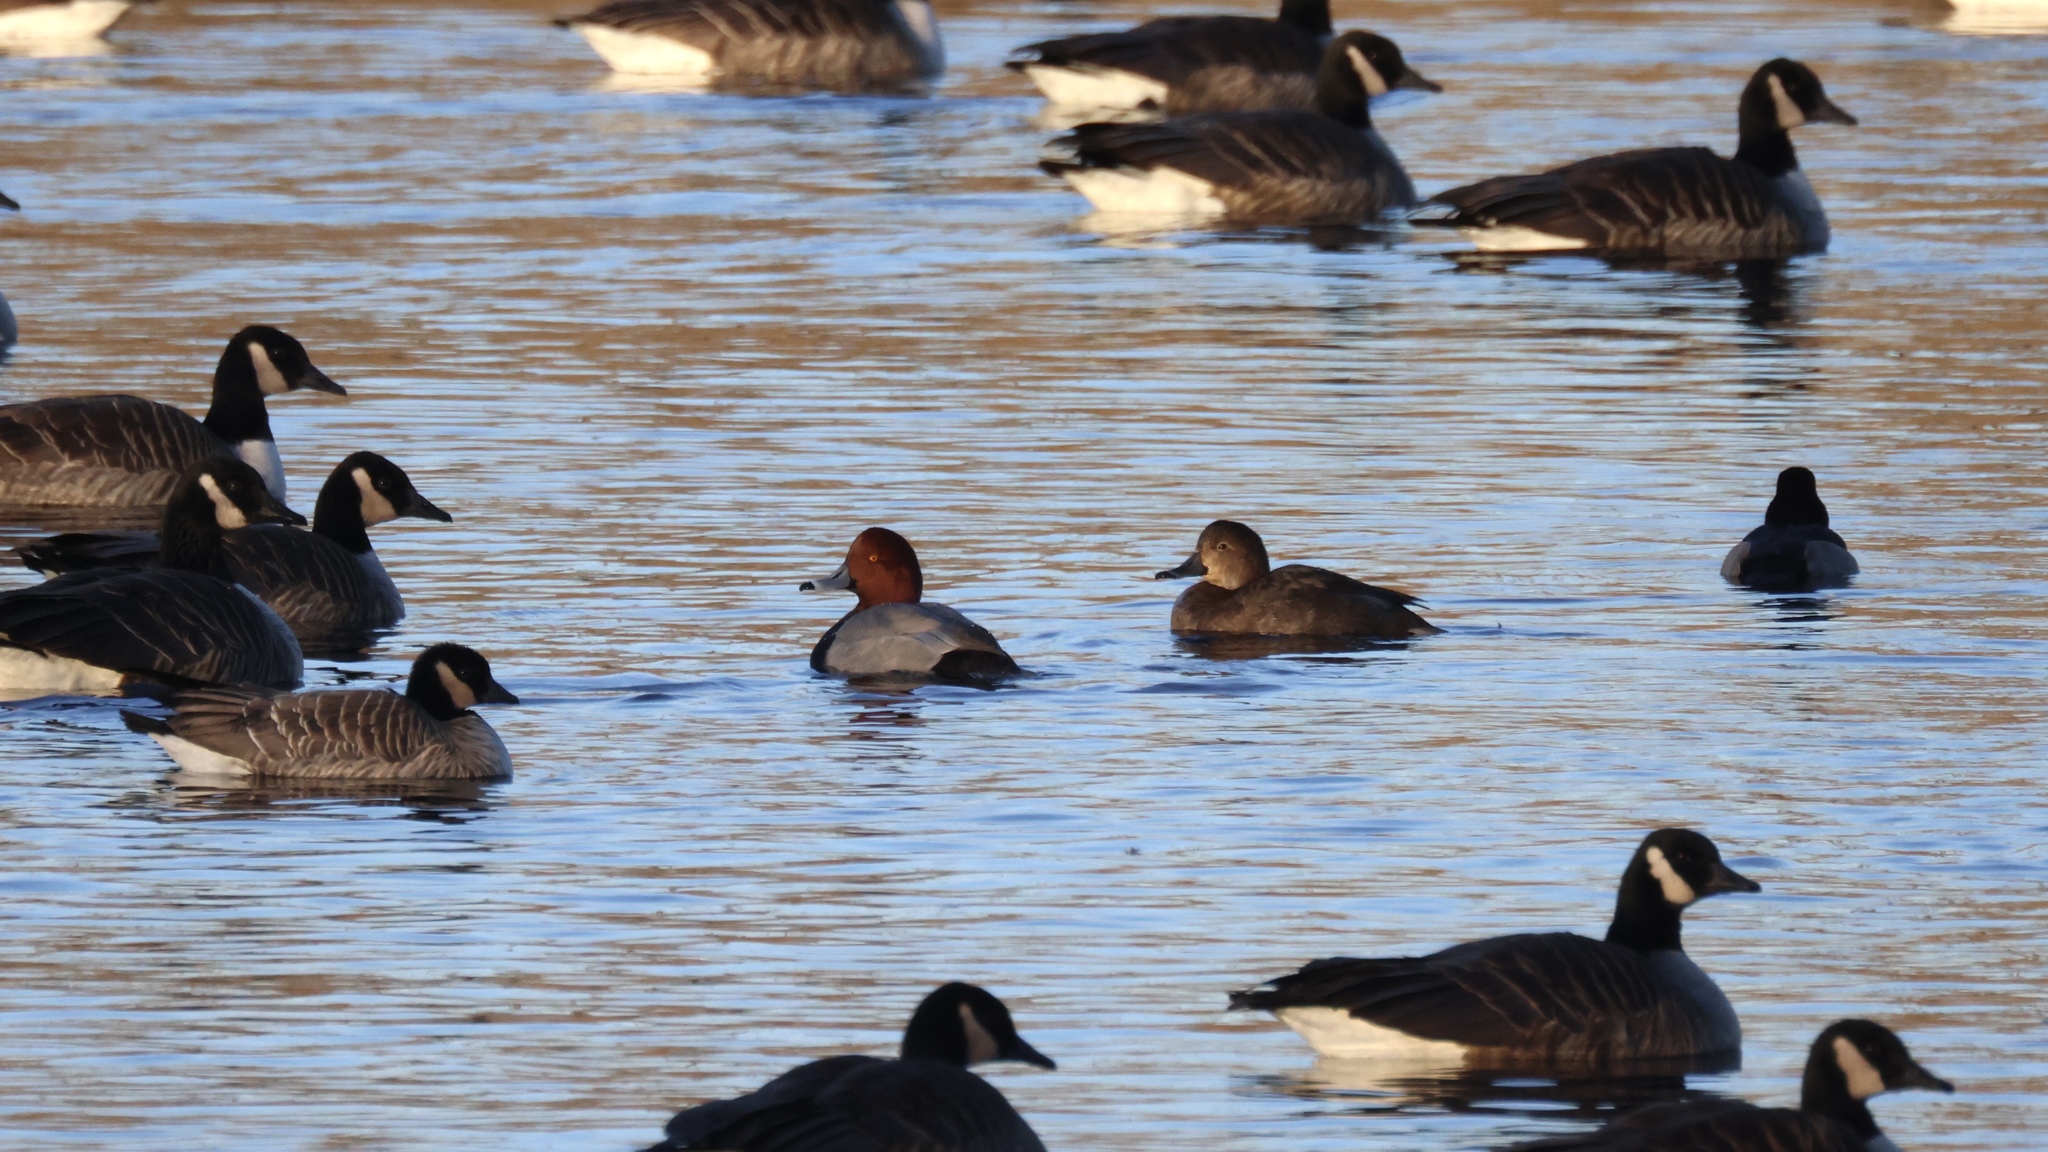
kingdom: Animalia
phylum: Chordata
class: Aves
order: Anseriformes
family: Anatidae
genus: Branta
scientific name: Branta canadensis
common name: Canada goose
